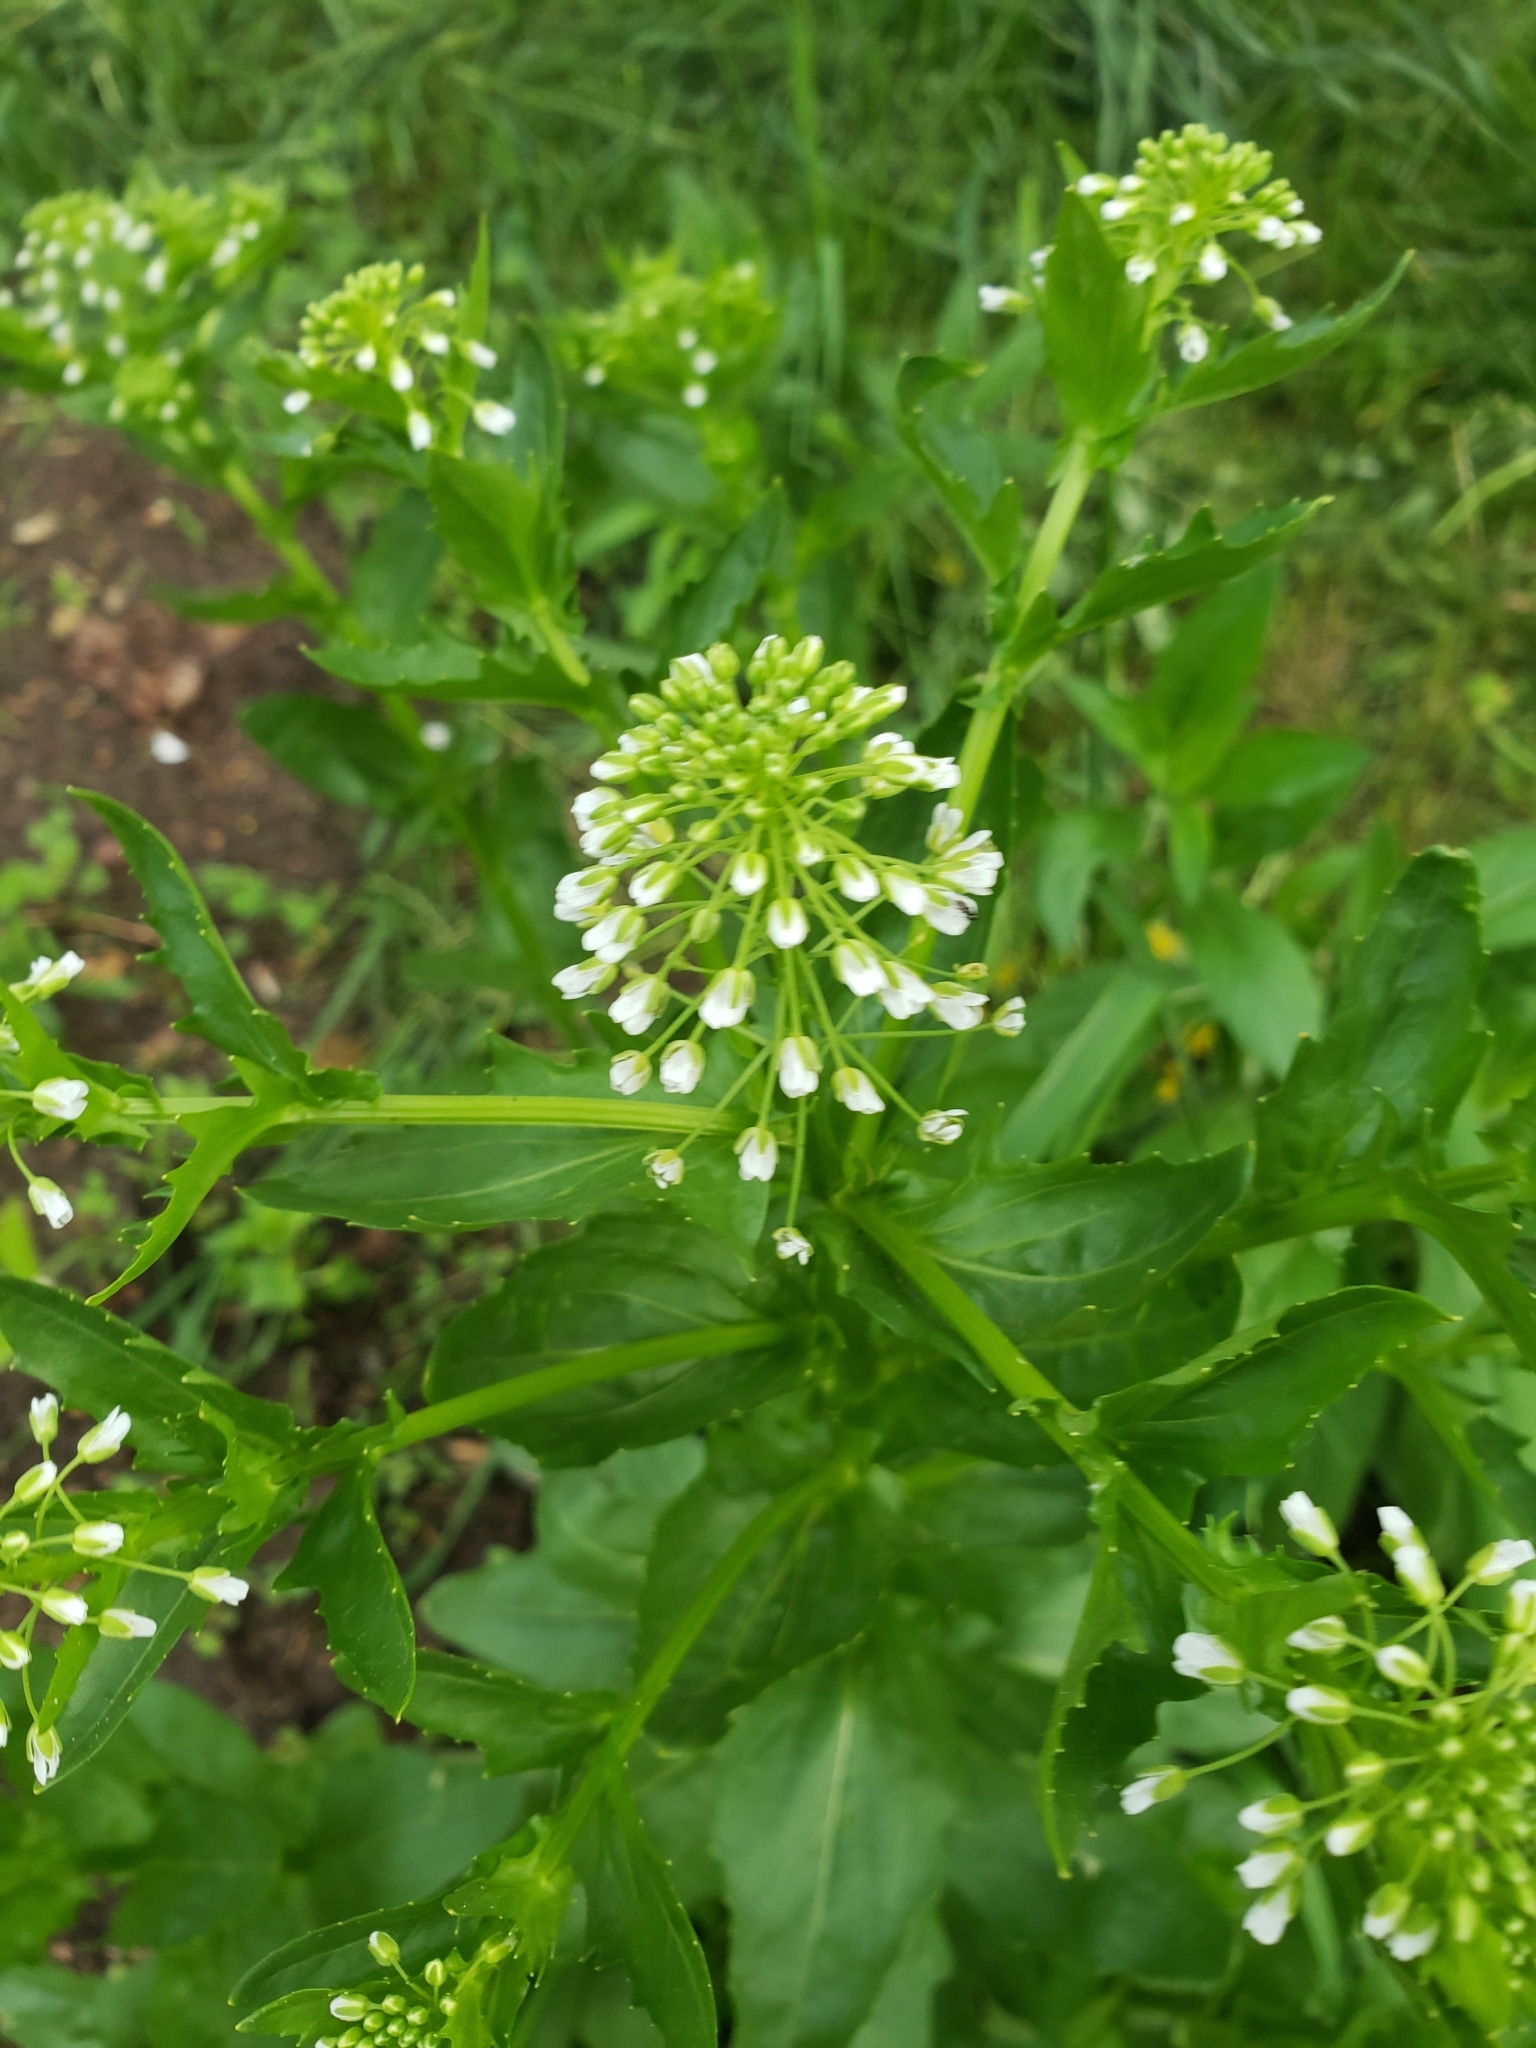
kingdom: Plantae
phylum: Tracheophyta
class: Magnoliopsida
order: Brassicales
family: Brassicaceae
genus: Thlaspi
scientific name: Thlaspi arvense
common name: Field pennycress
